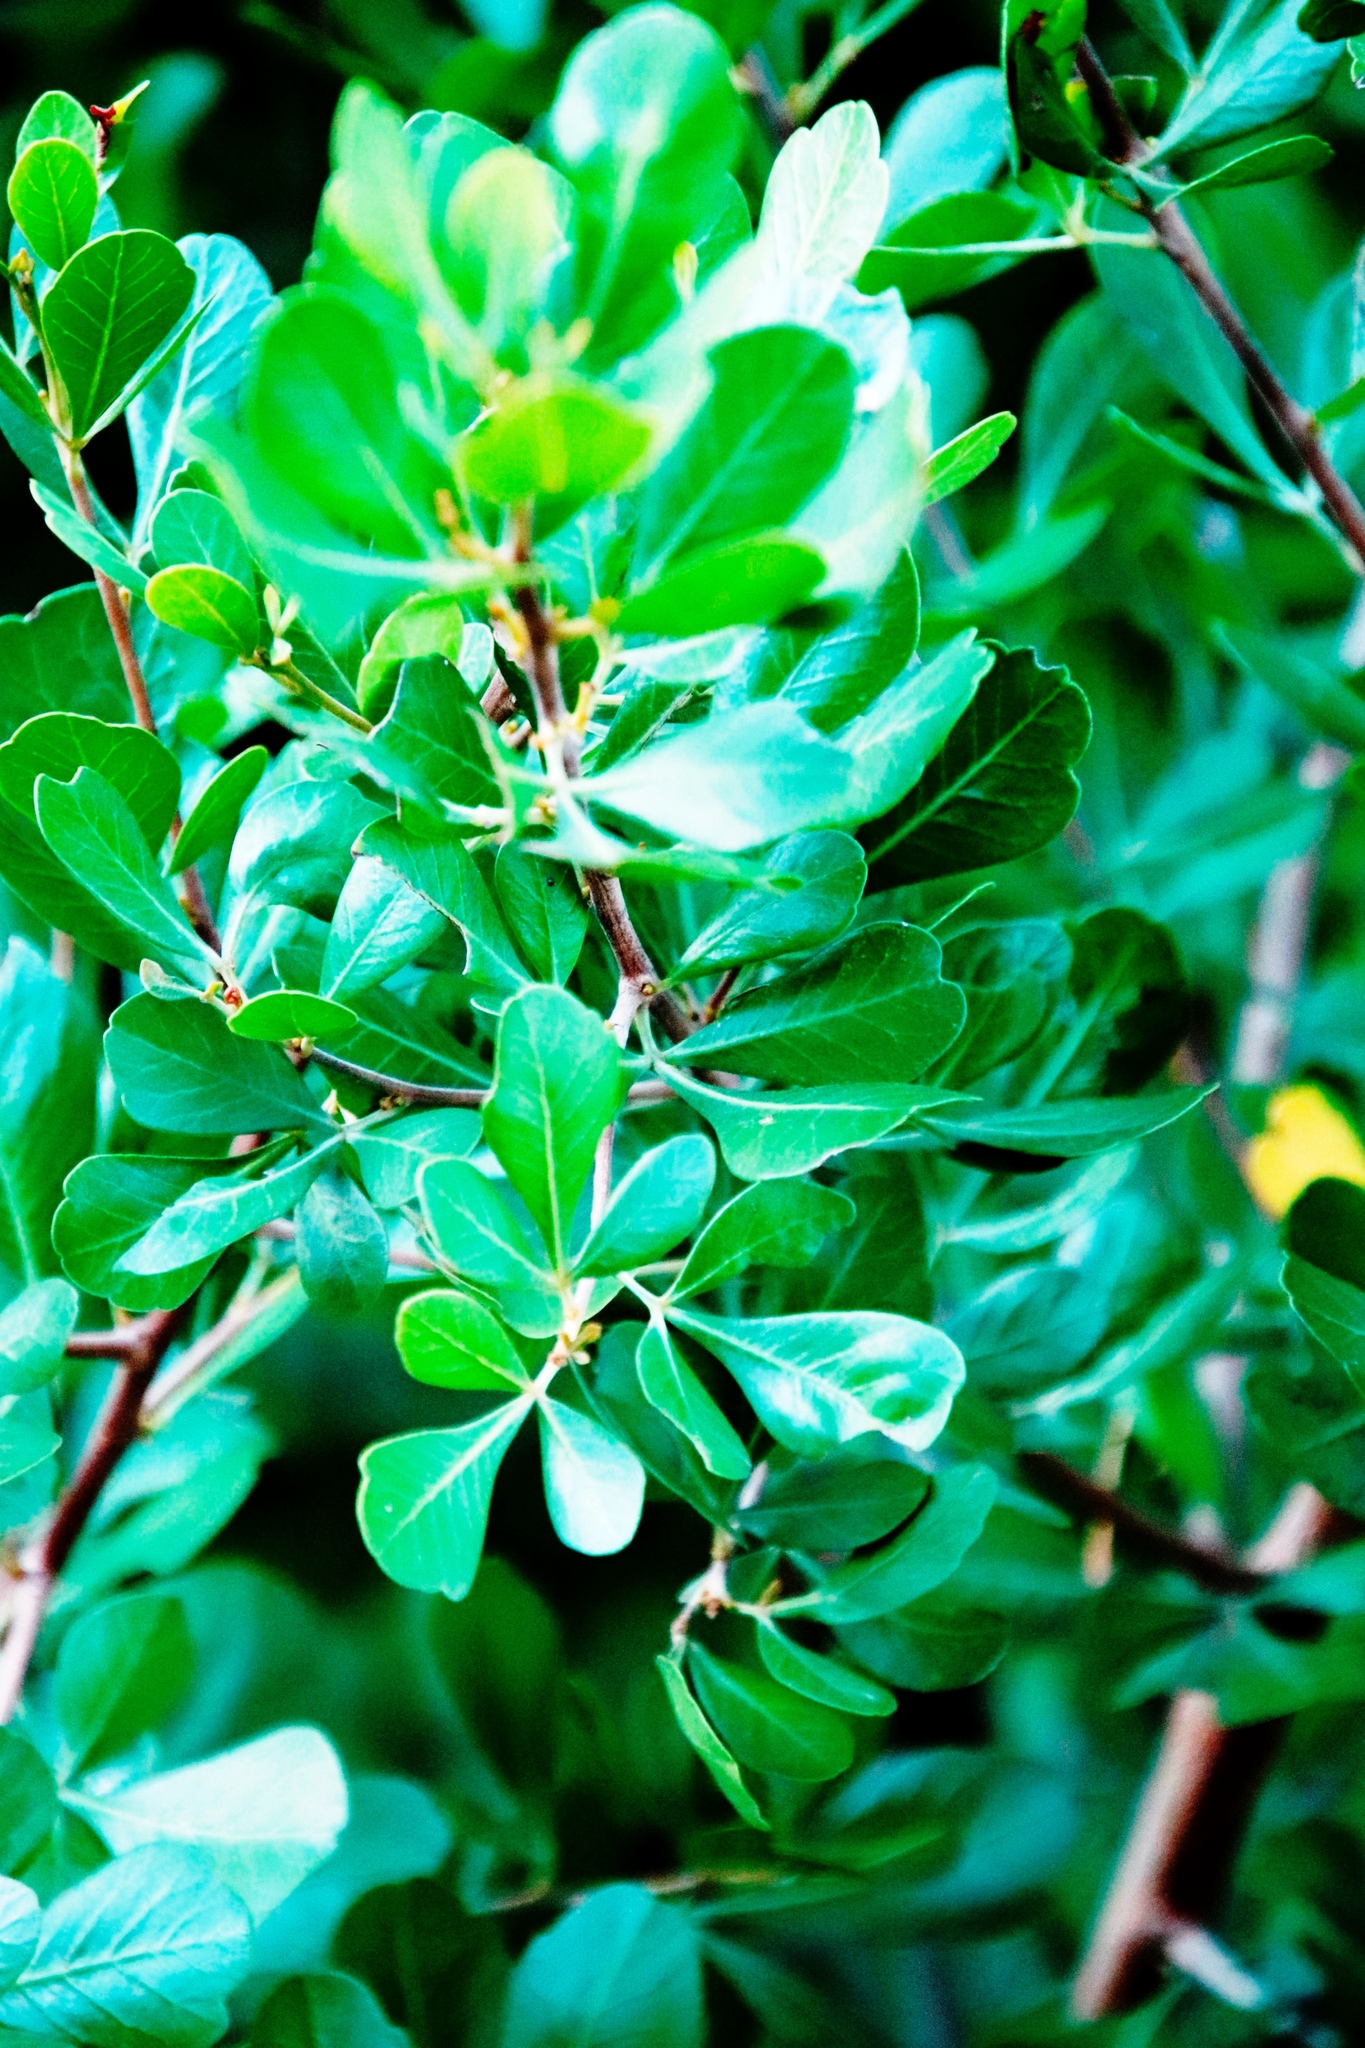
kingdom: Plantae
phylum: Tracheophyta
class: Magnoliopsida
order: Sapindales
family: Anacardiaceae
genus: Searsia
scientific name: Searsia lucida
